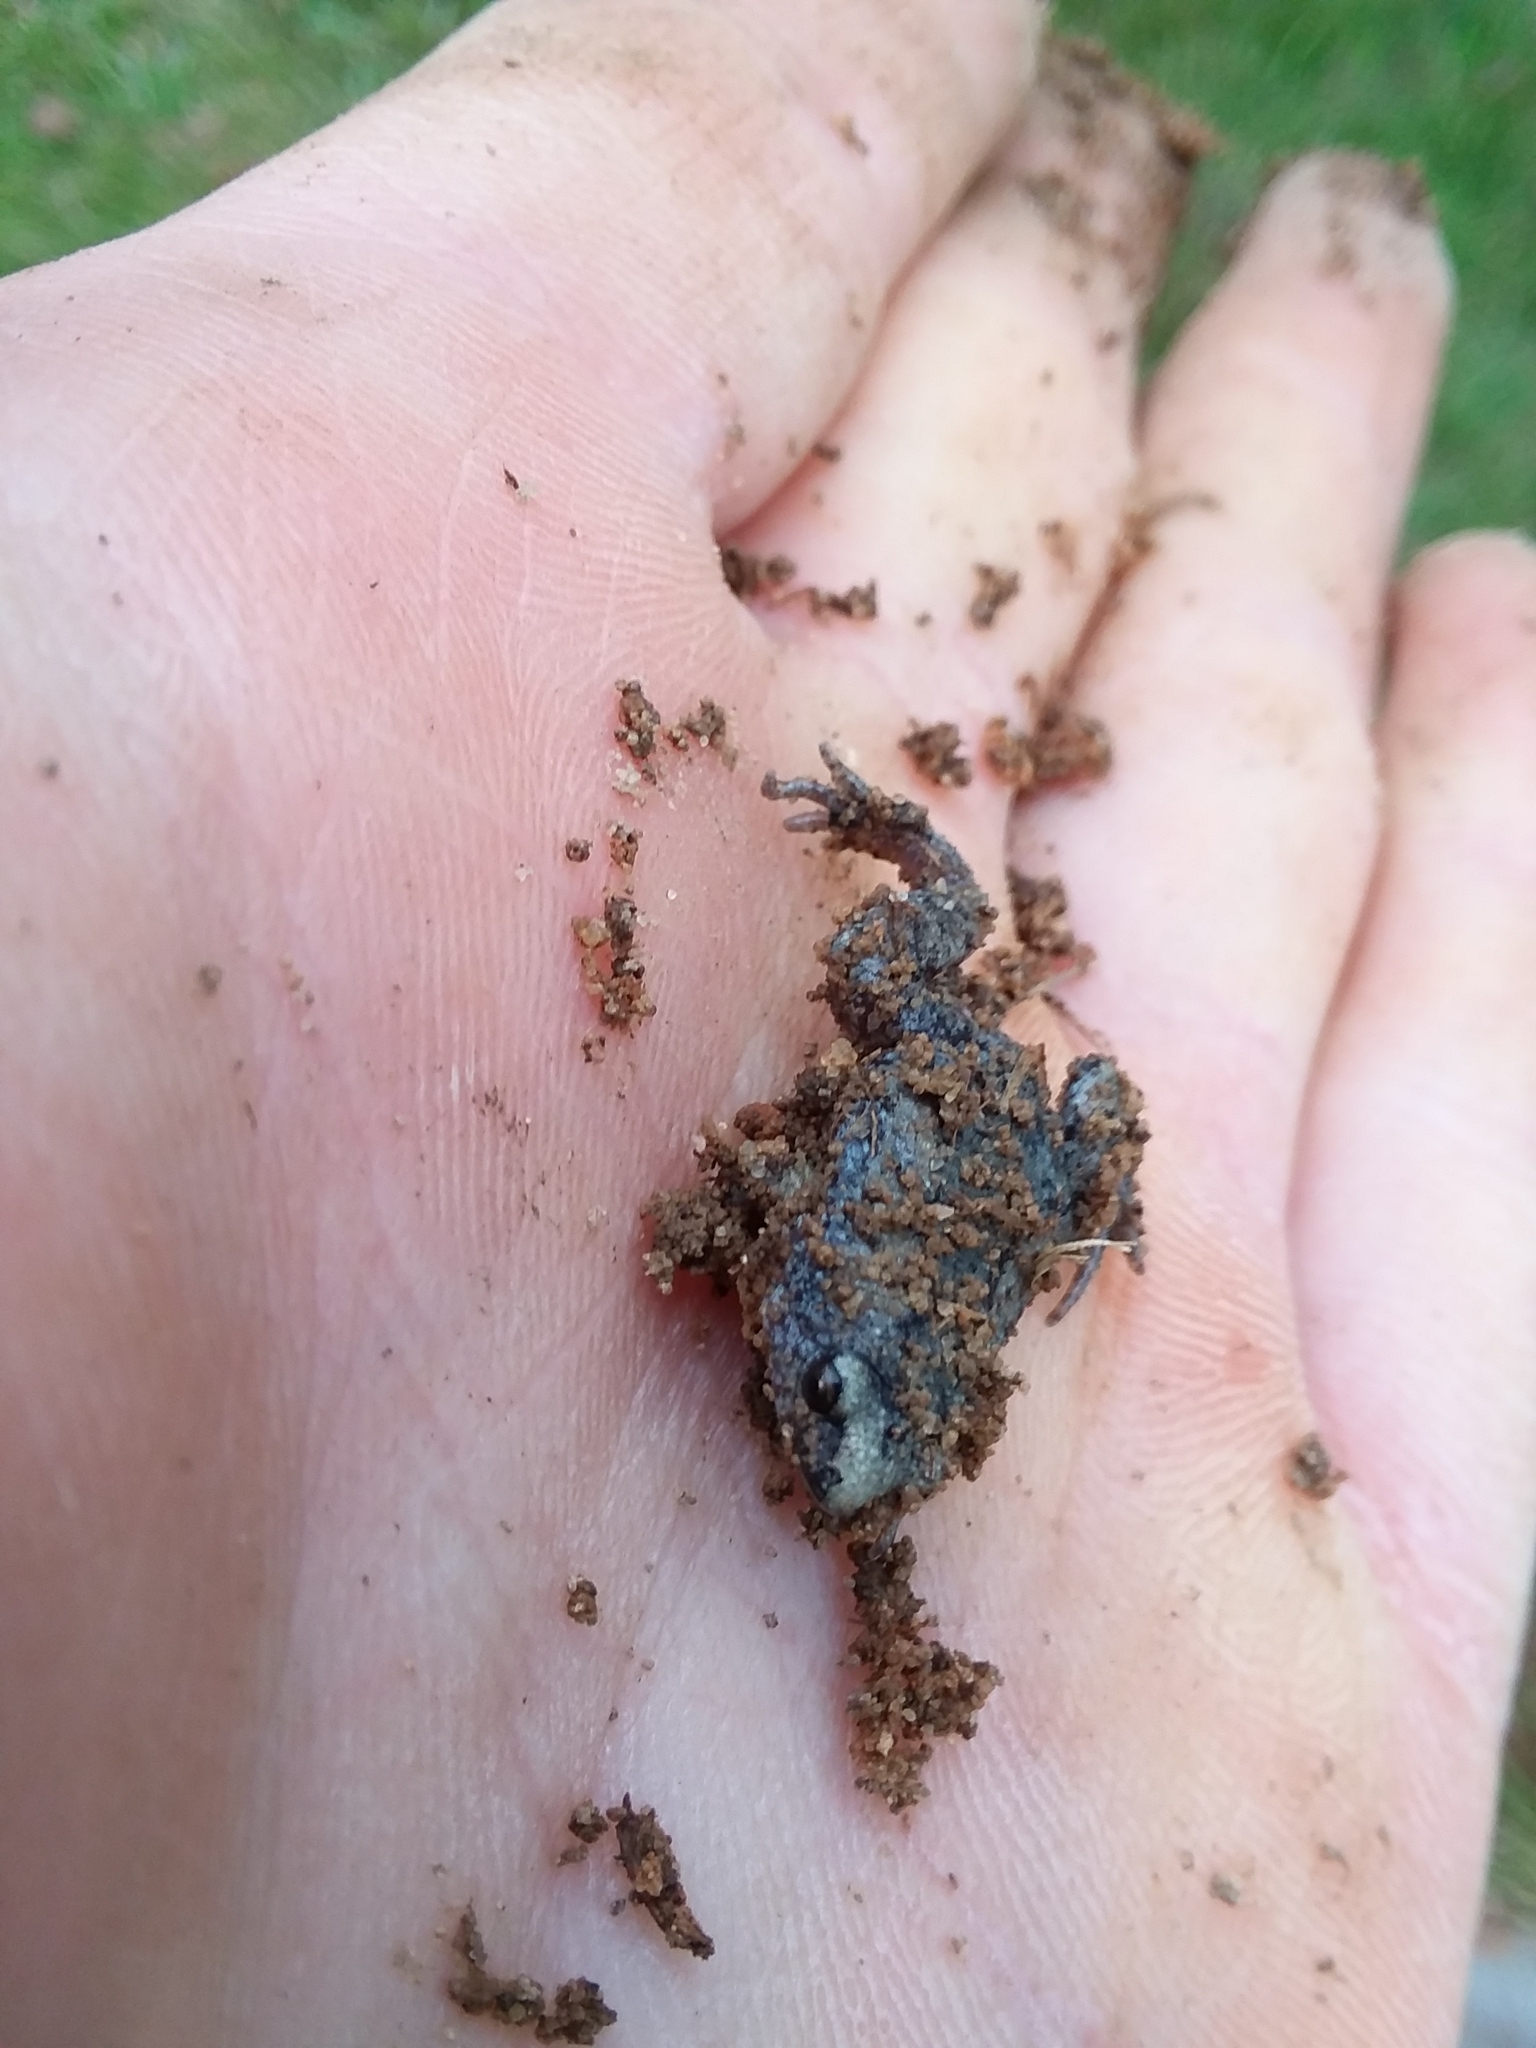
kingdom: Animalia
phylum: Chordata
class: Amphibia
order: Anura
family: Microhylidae
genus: Gastrophryne
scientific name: Gastrophryne carolinensis
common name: Eastern narrowmouth toad
